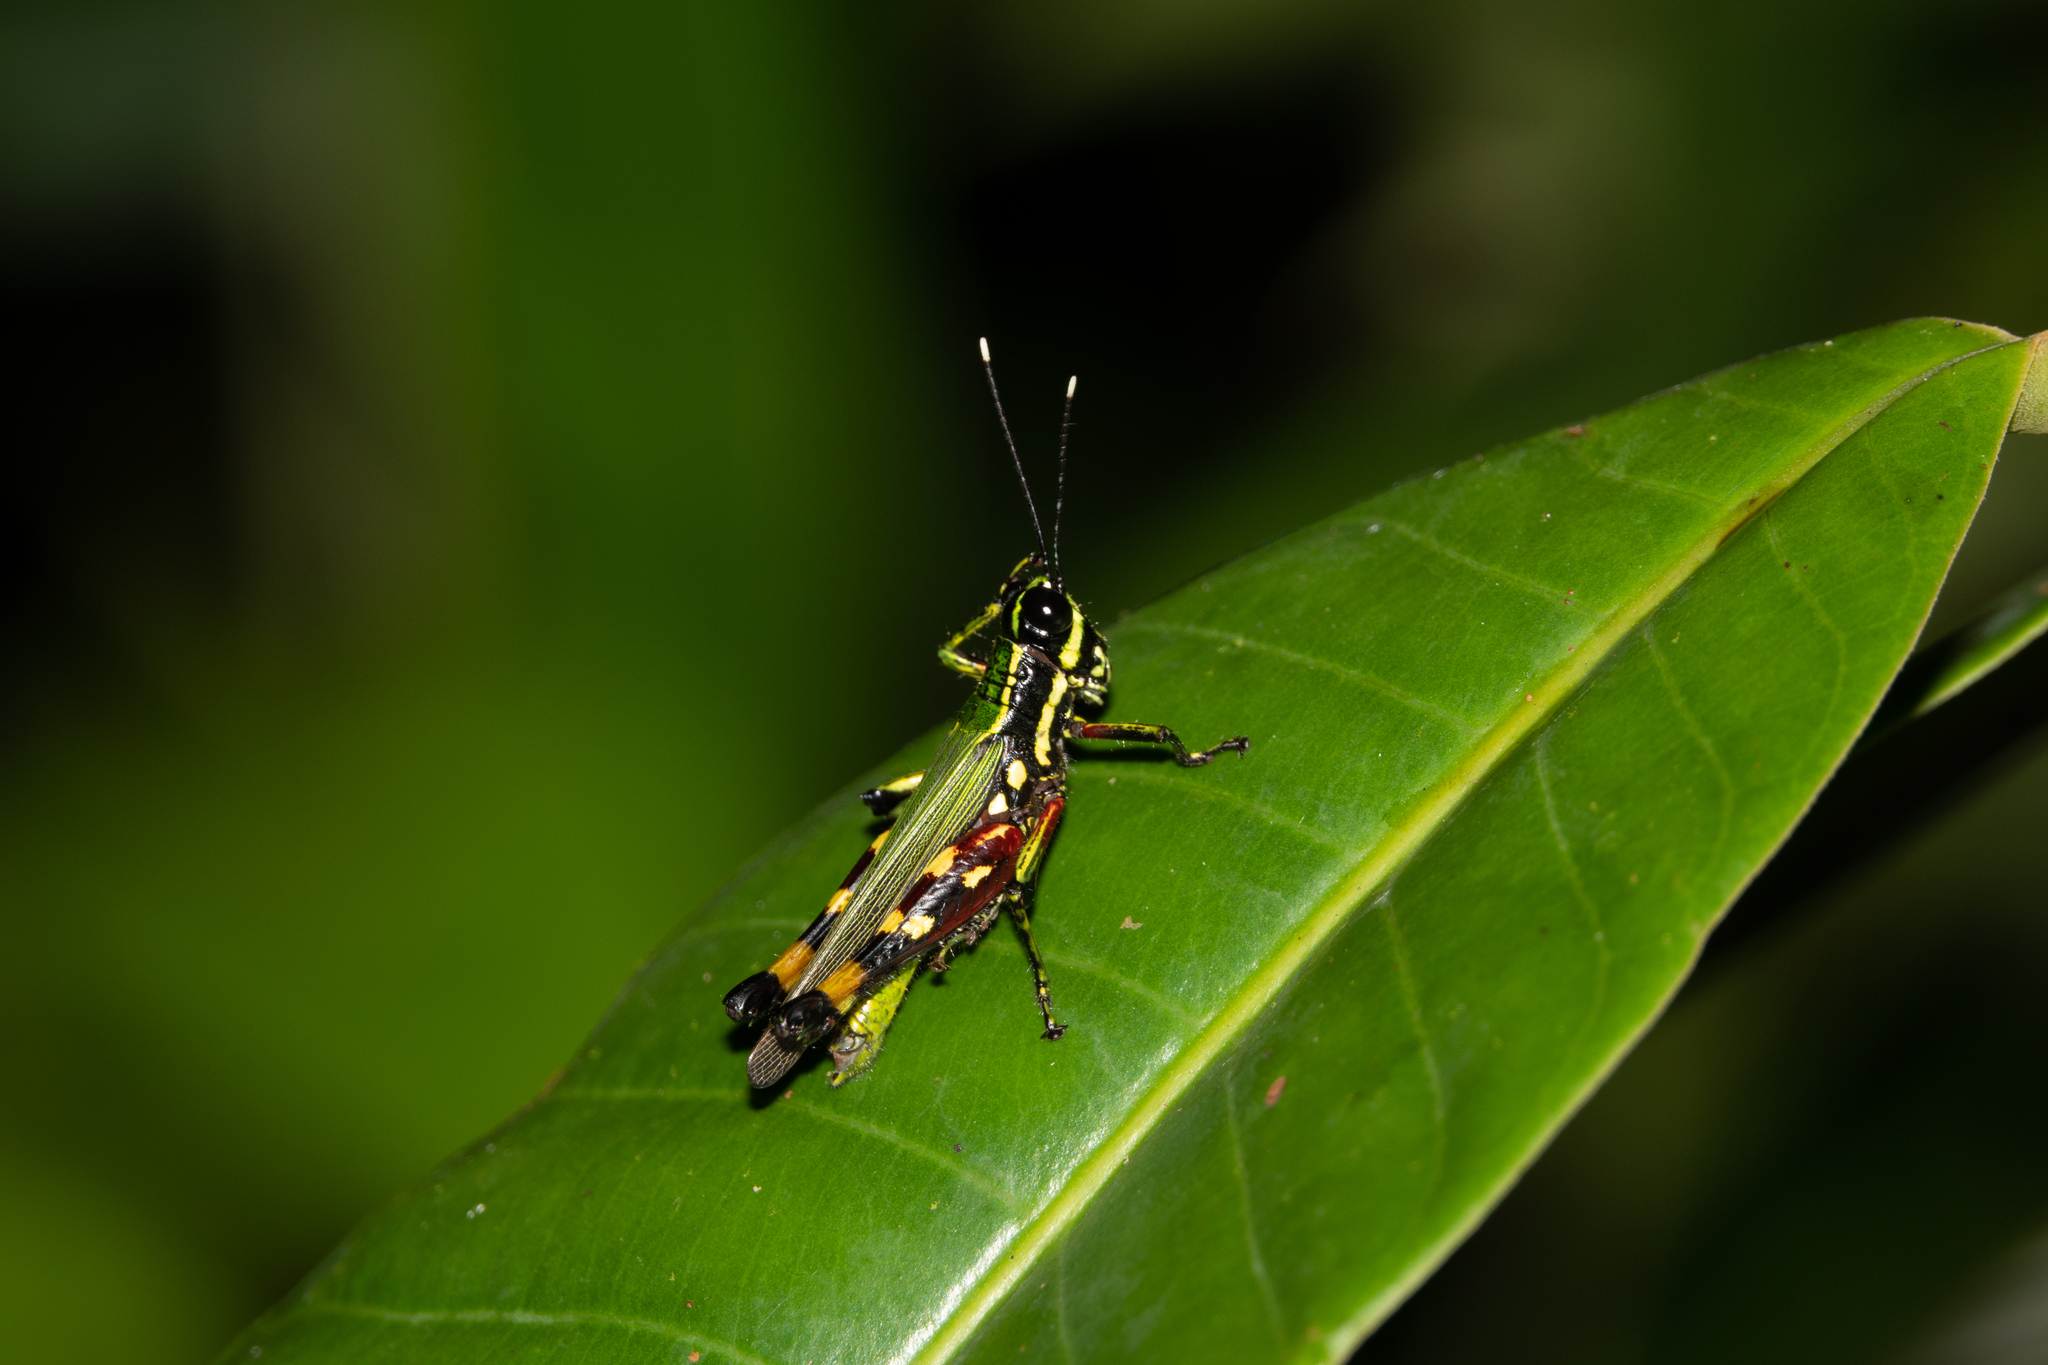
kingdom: Animalia
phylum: Arthropoda
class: Insecta
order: Orthoptera
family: Acrididae
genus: Tetrataenia
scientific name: Tetrataenia surinama
